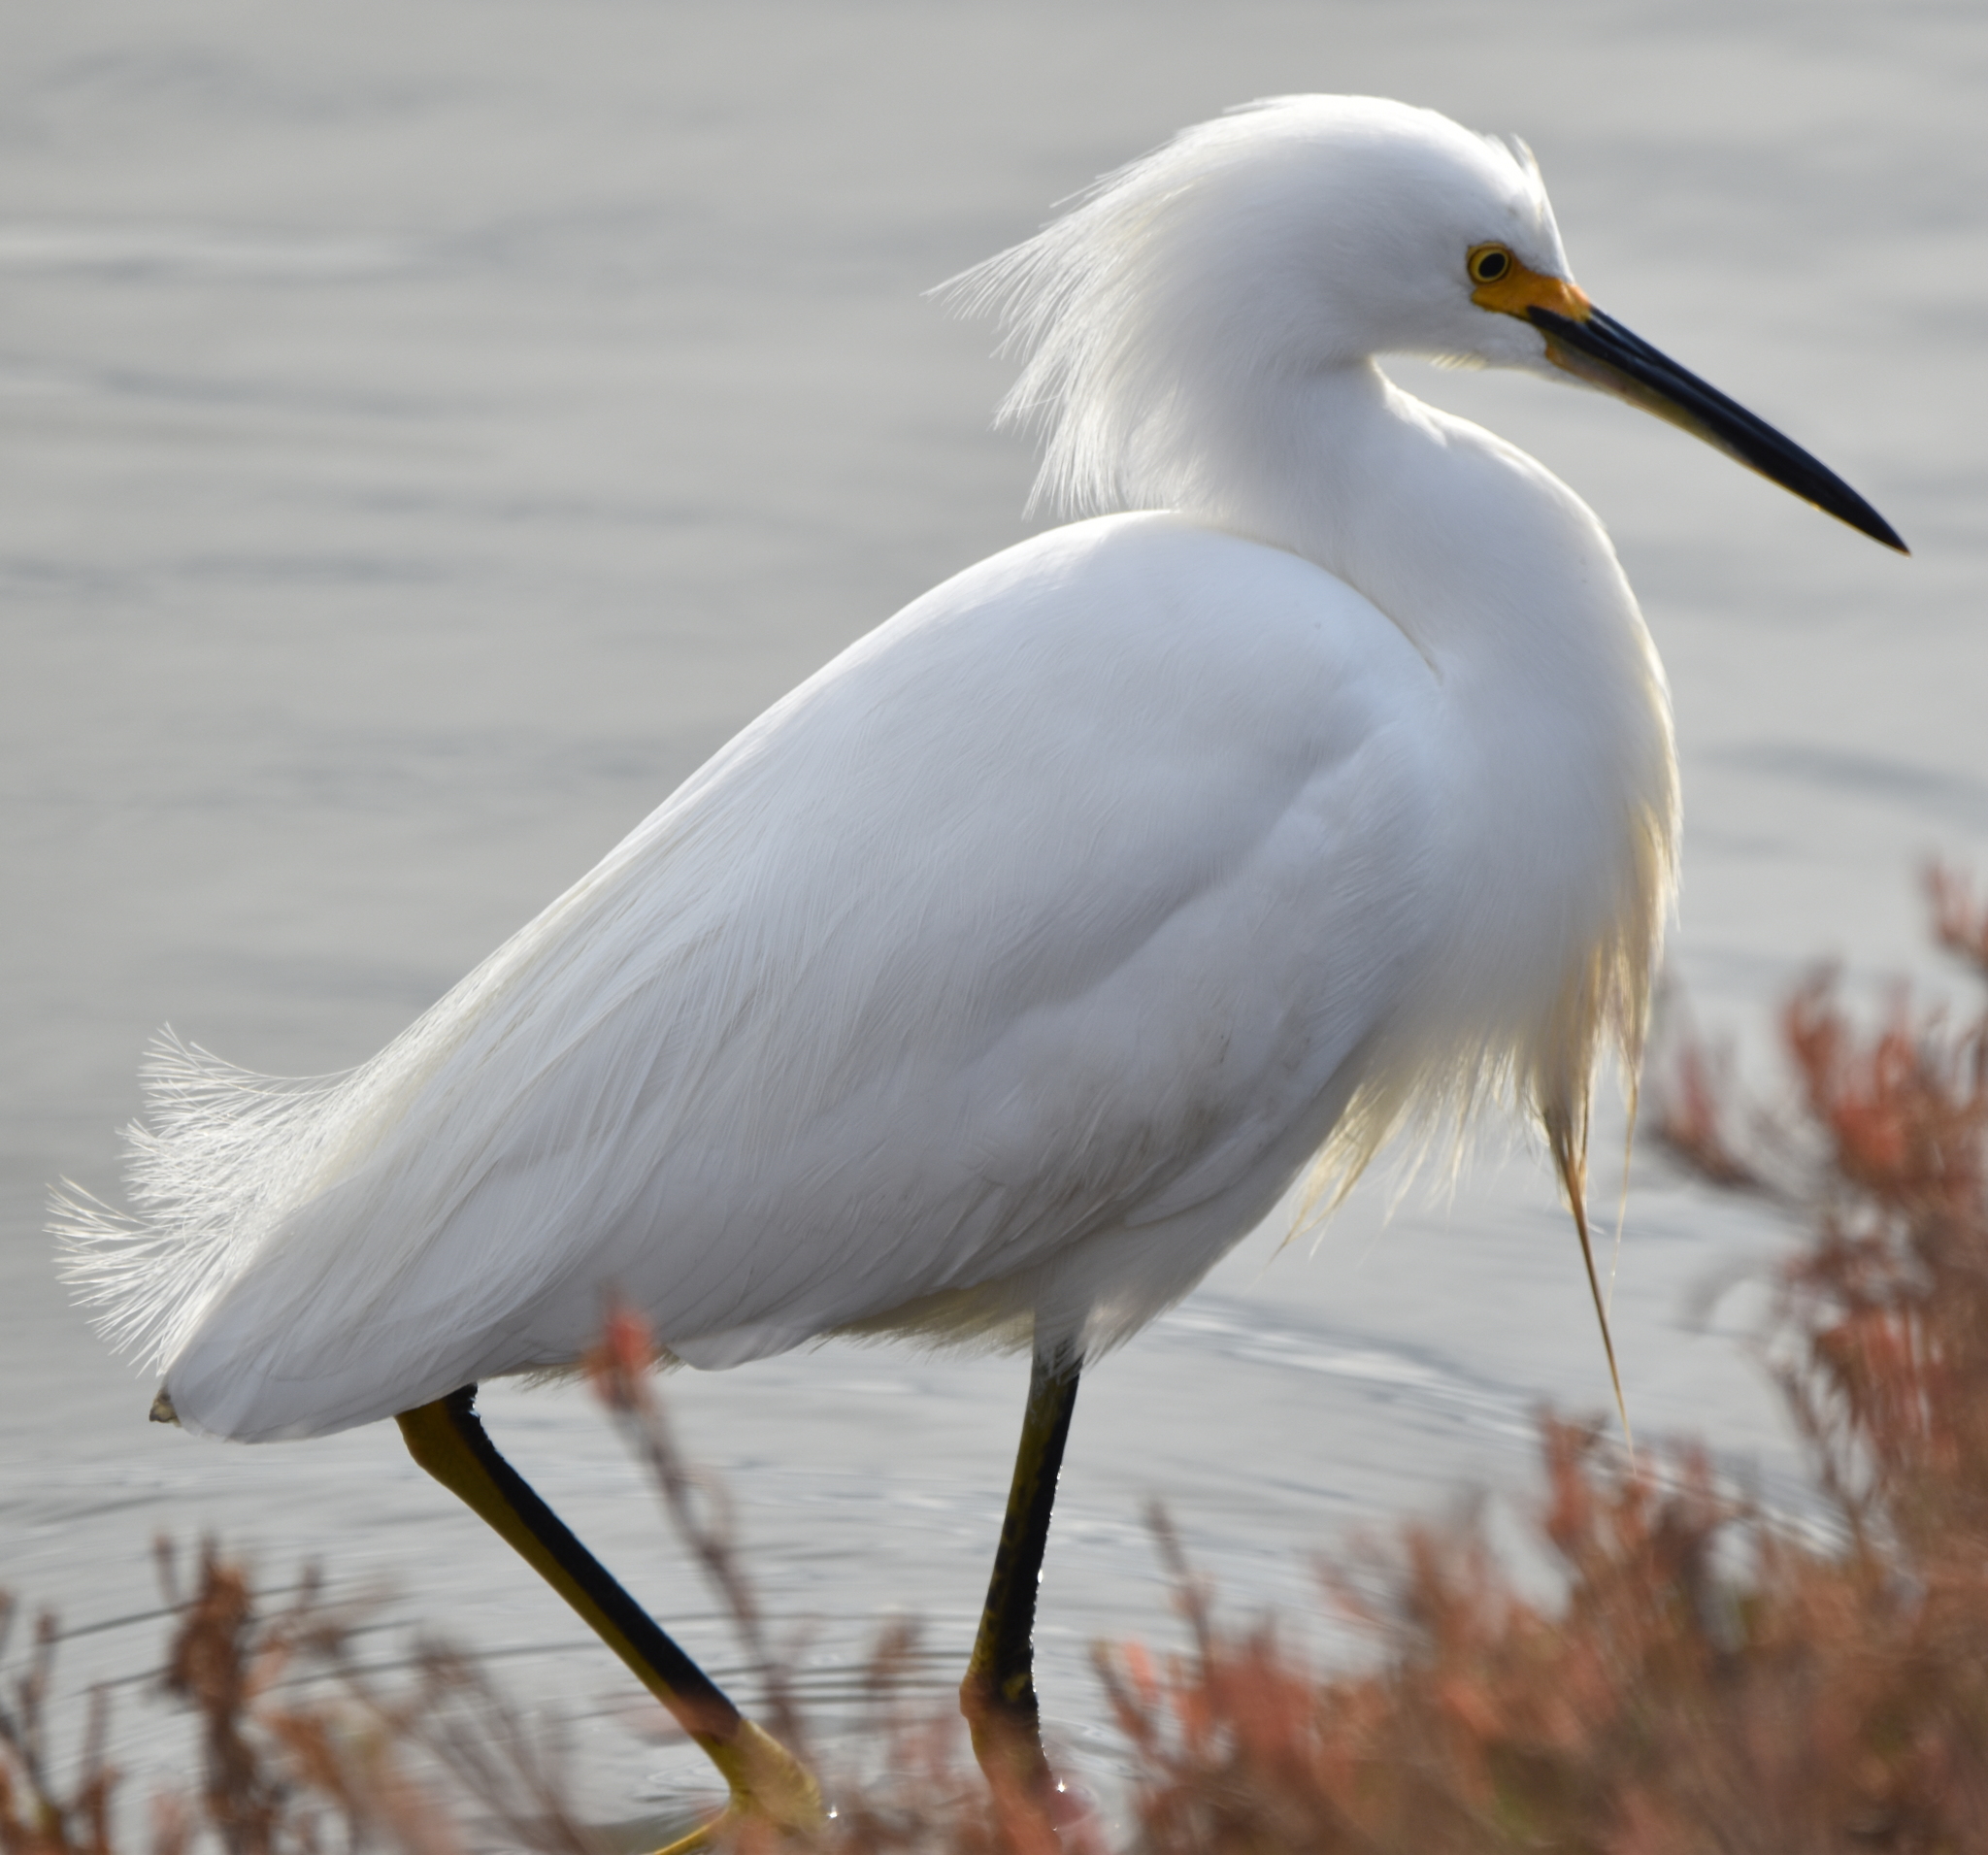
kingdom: Animalia
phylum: Chordata
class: Aves
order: Pelecaniformes
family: Ardeidae
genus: Egretta
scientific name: Egretta thula
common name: Snowy egret
